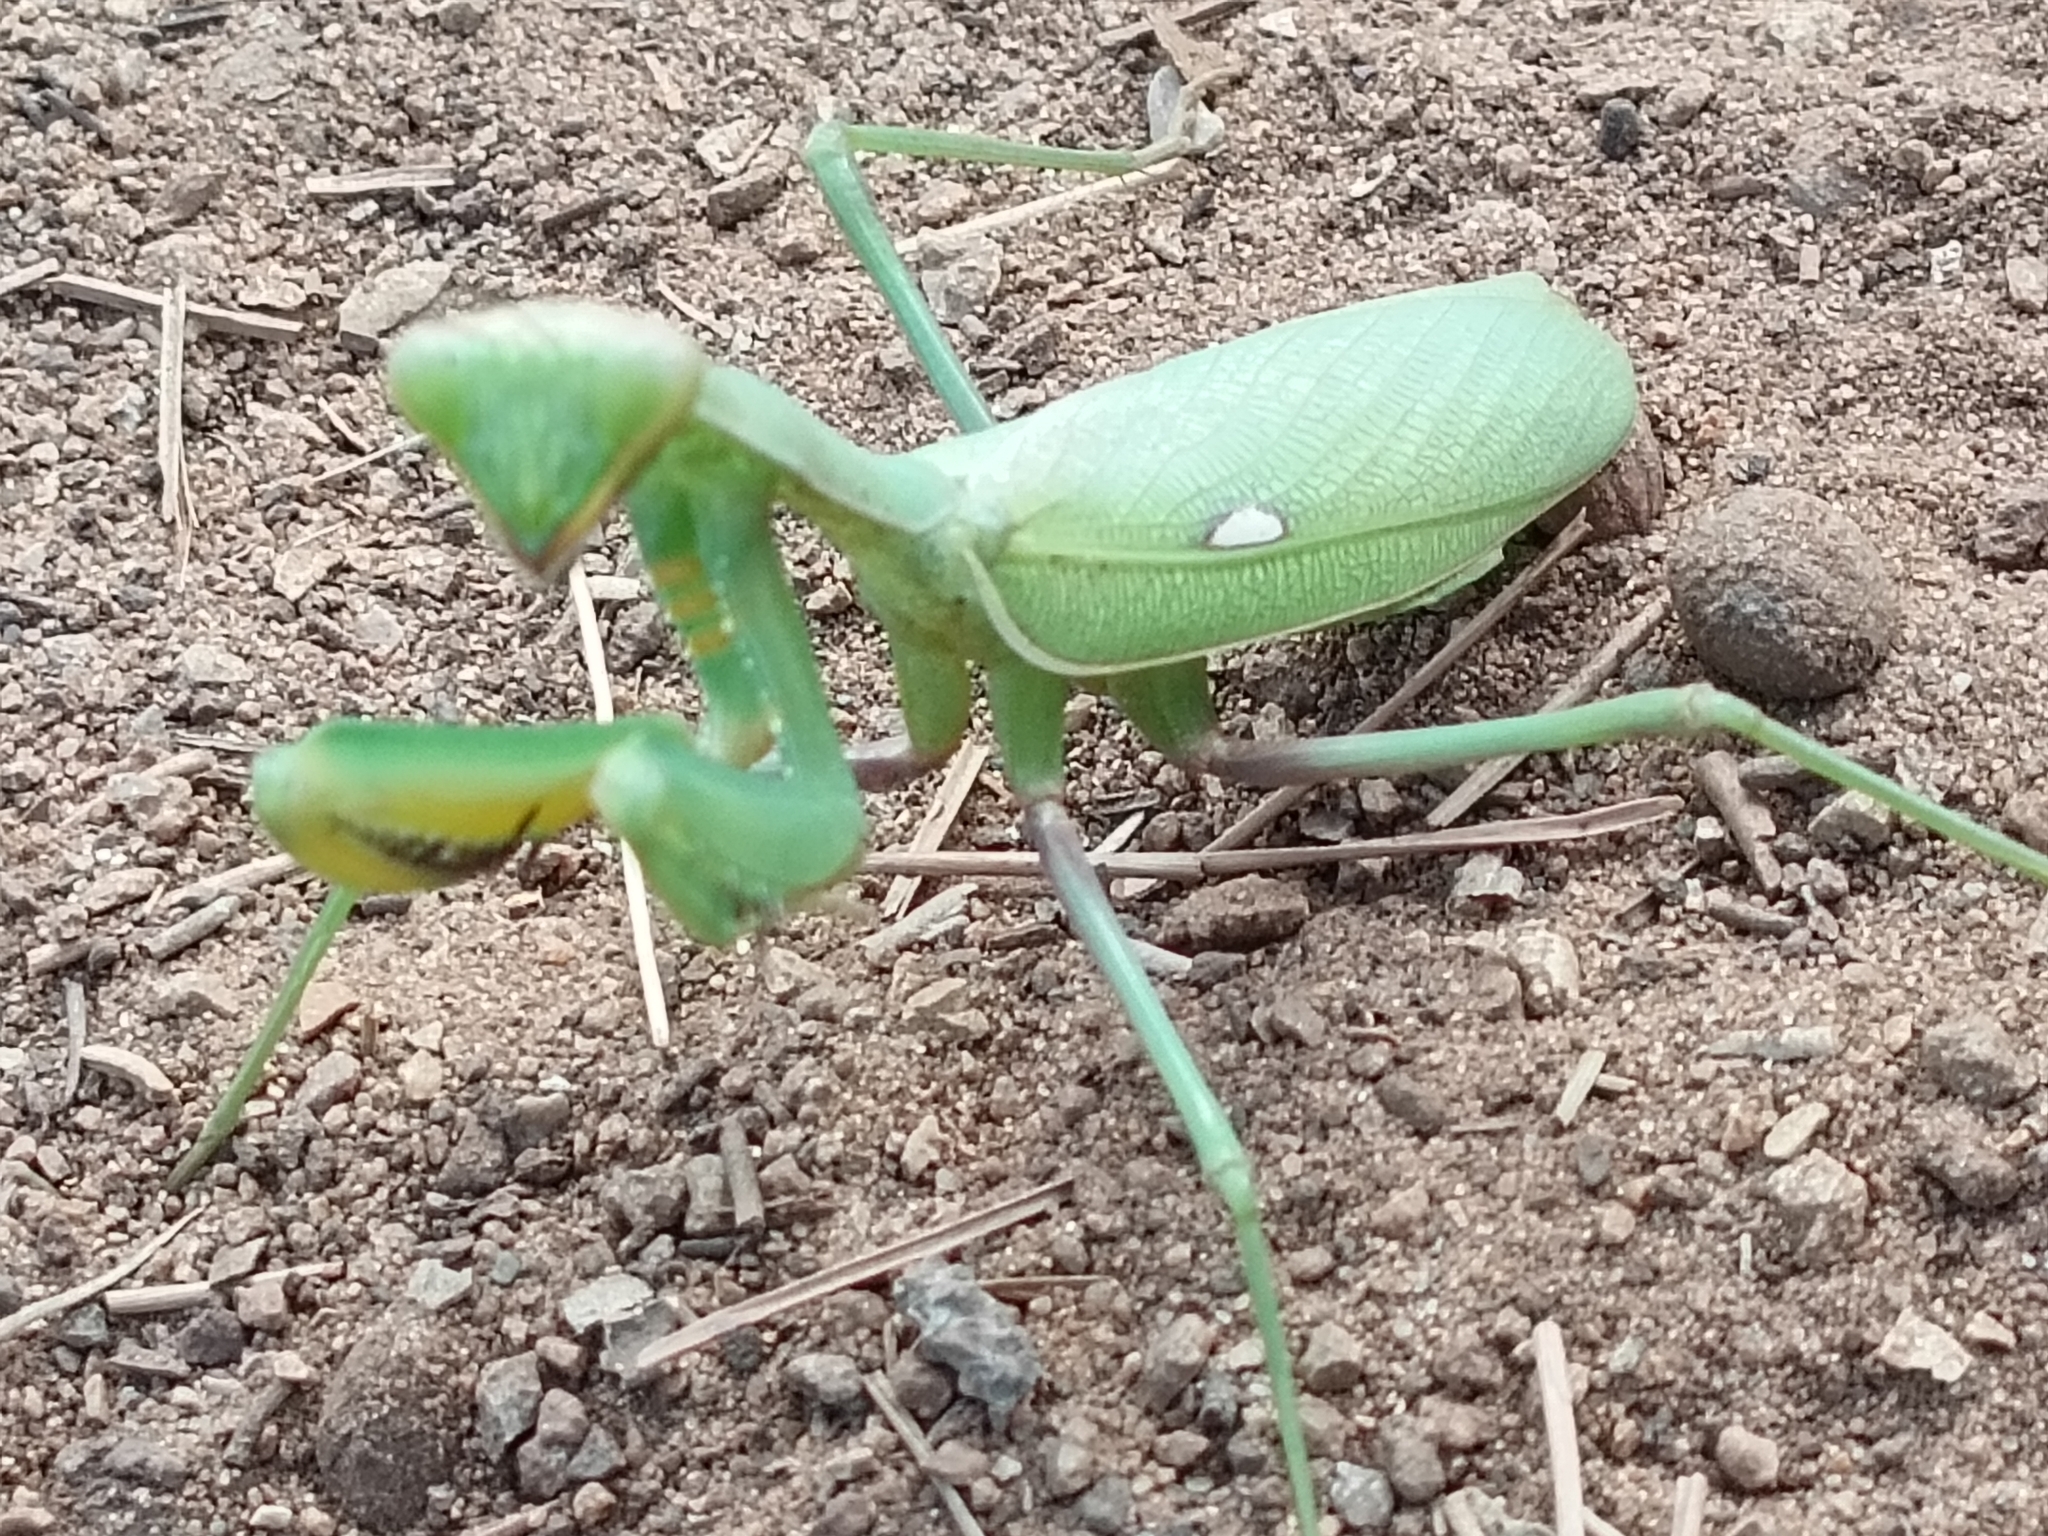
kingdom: Animalia
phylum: Arthropoda
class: Insecta
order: Mantodea
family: Mantidae
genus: Sphodromantis
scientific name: Sphodromantis viridis
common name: Giant african mantis
